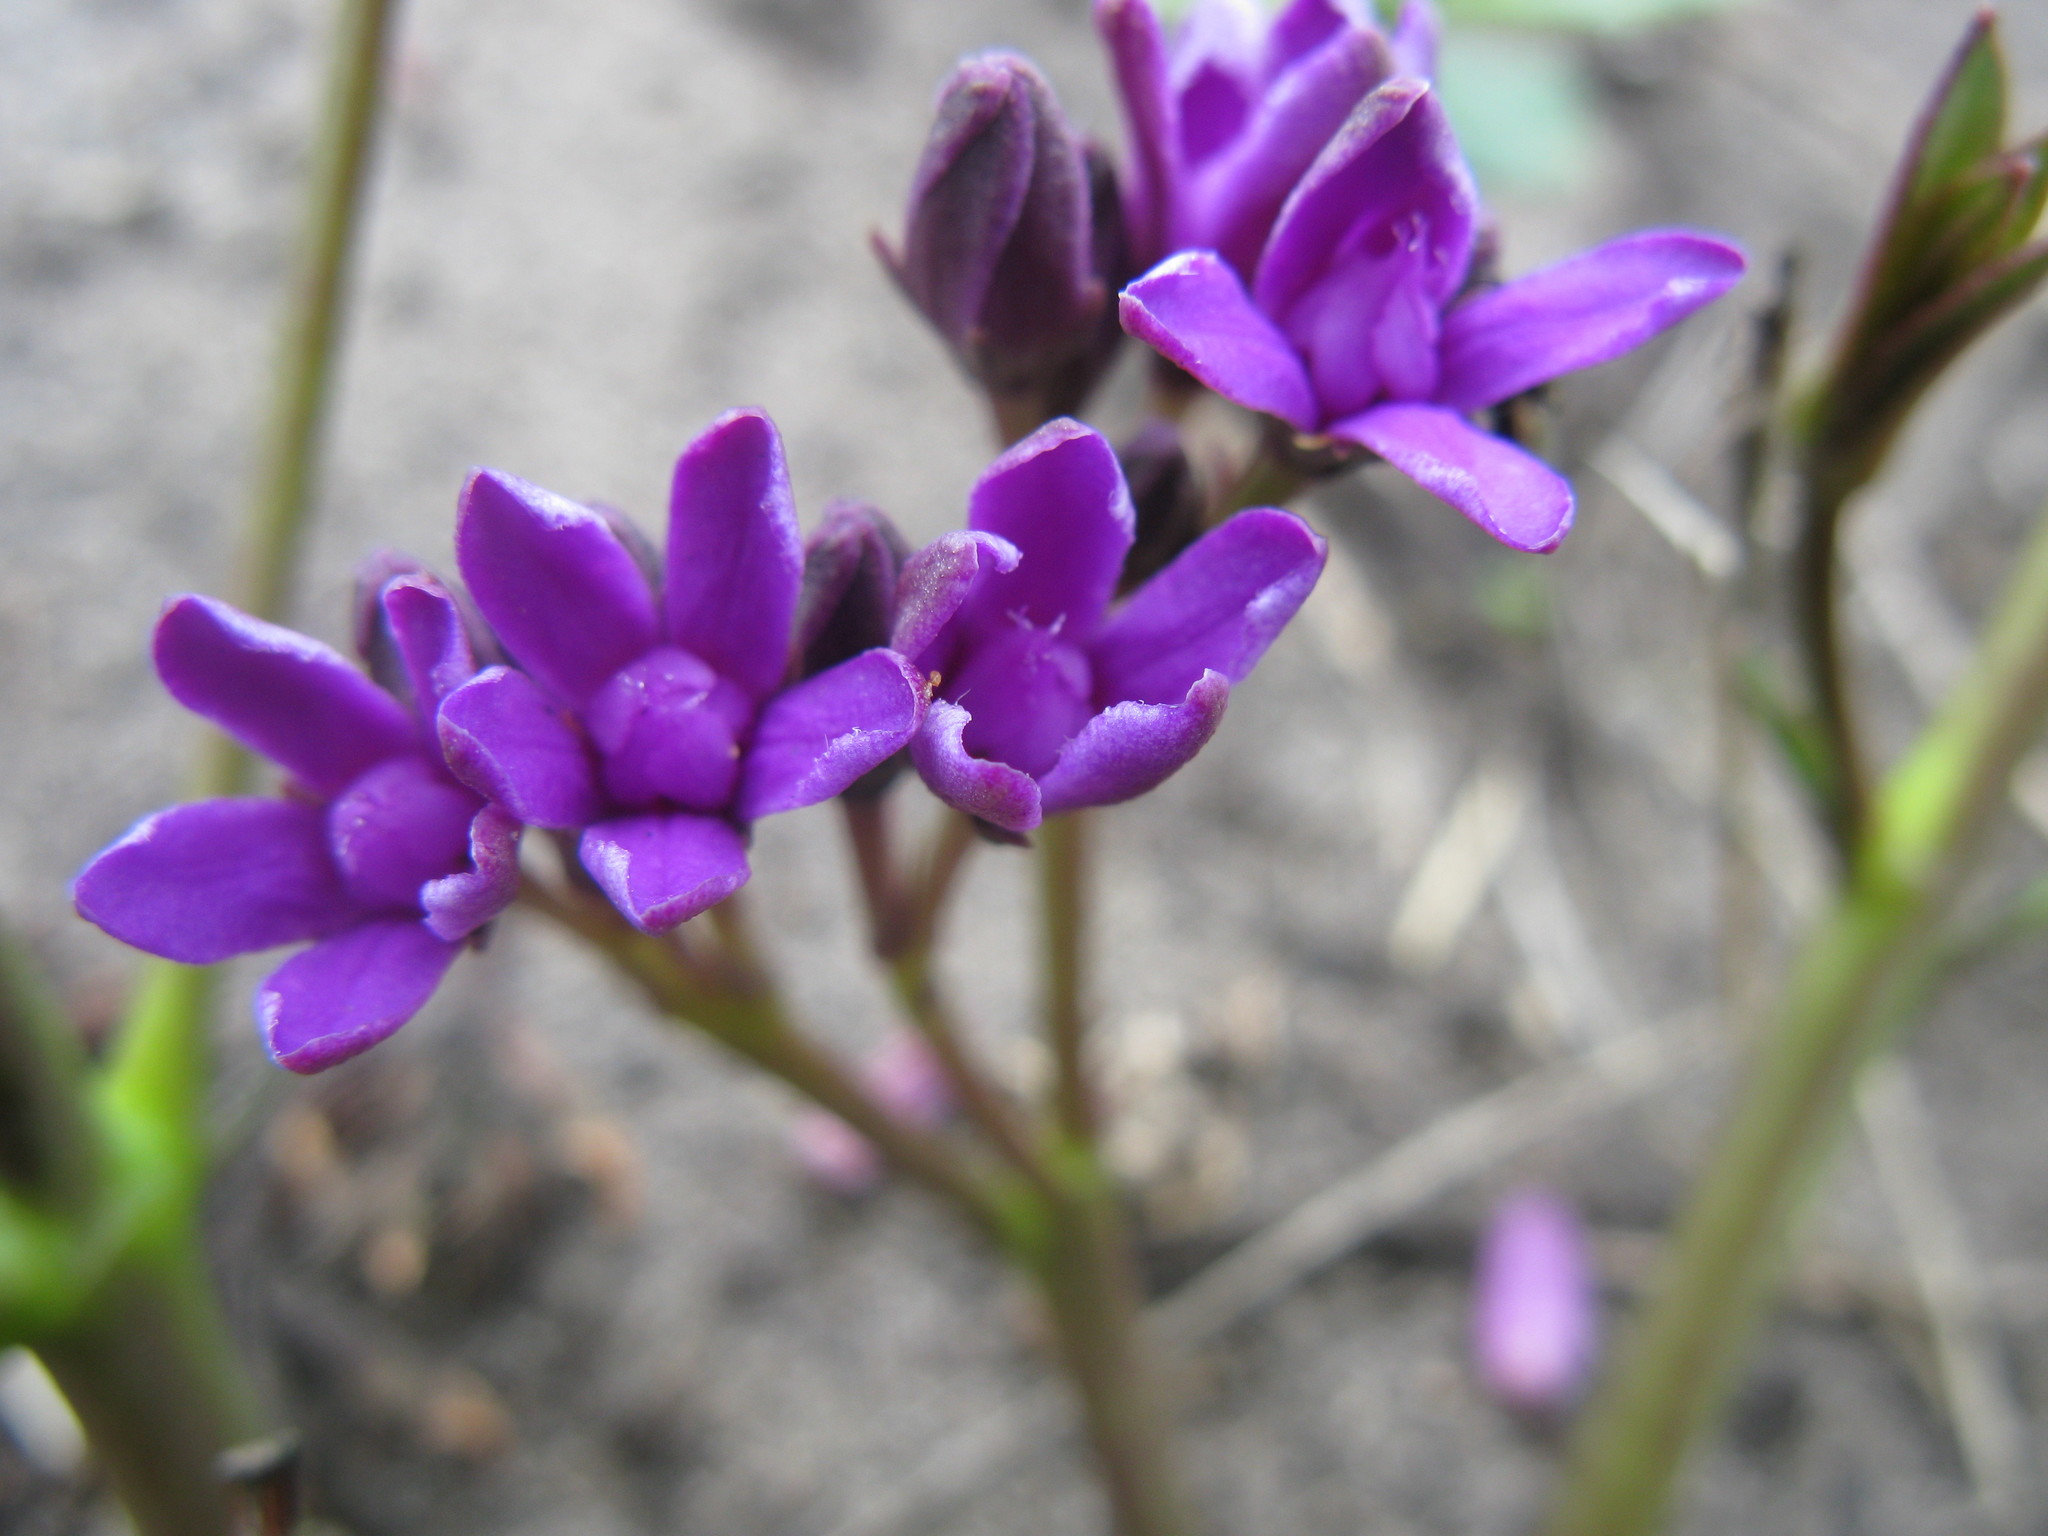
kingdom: Plantae
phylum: Tracheophyta
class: Magnoliopsida
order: Gentianales
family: Apocynaceae
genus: Raphionacme
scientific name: Raphionacme hirsuta
